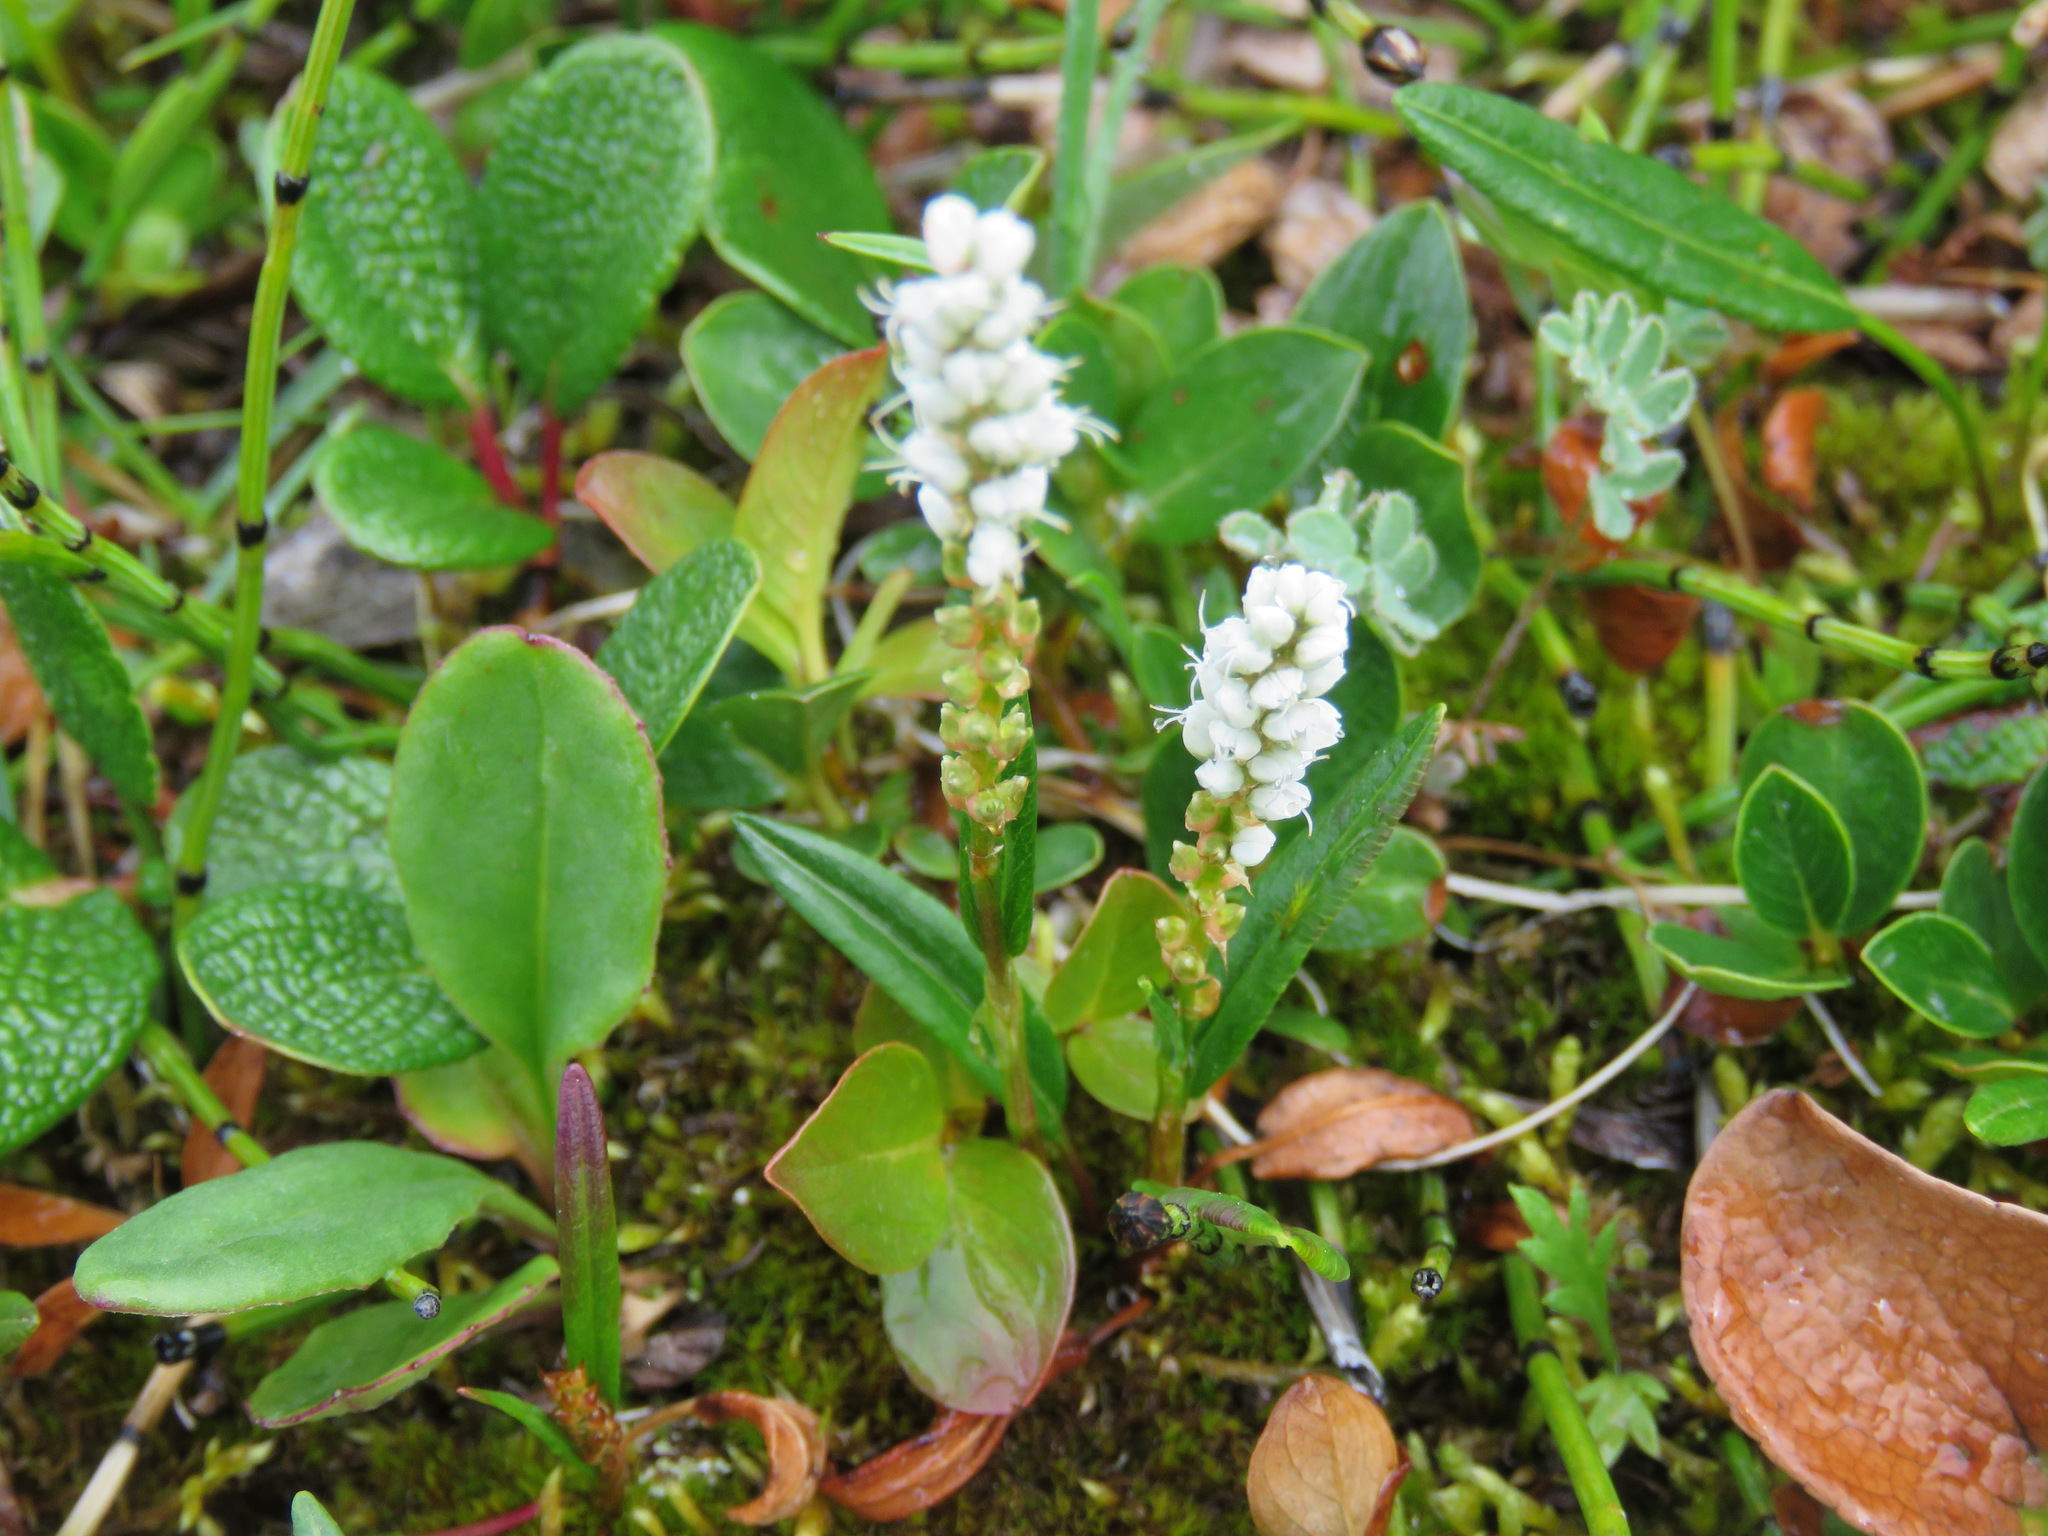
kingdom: Plantae
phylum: Tracheophyta
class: Magnoliopsida
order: Caryophyllales
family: Polygonaceae
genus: Bistorta
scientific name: Bistorta vivipara
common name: Alpine bistort
